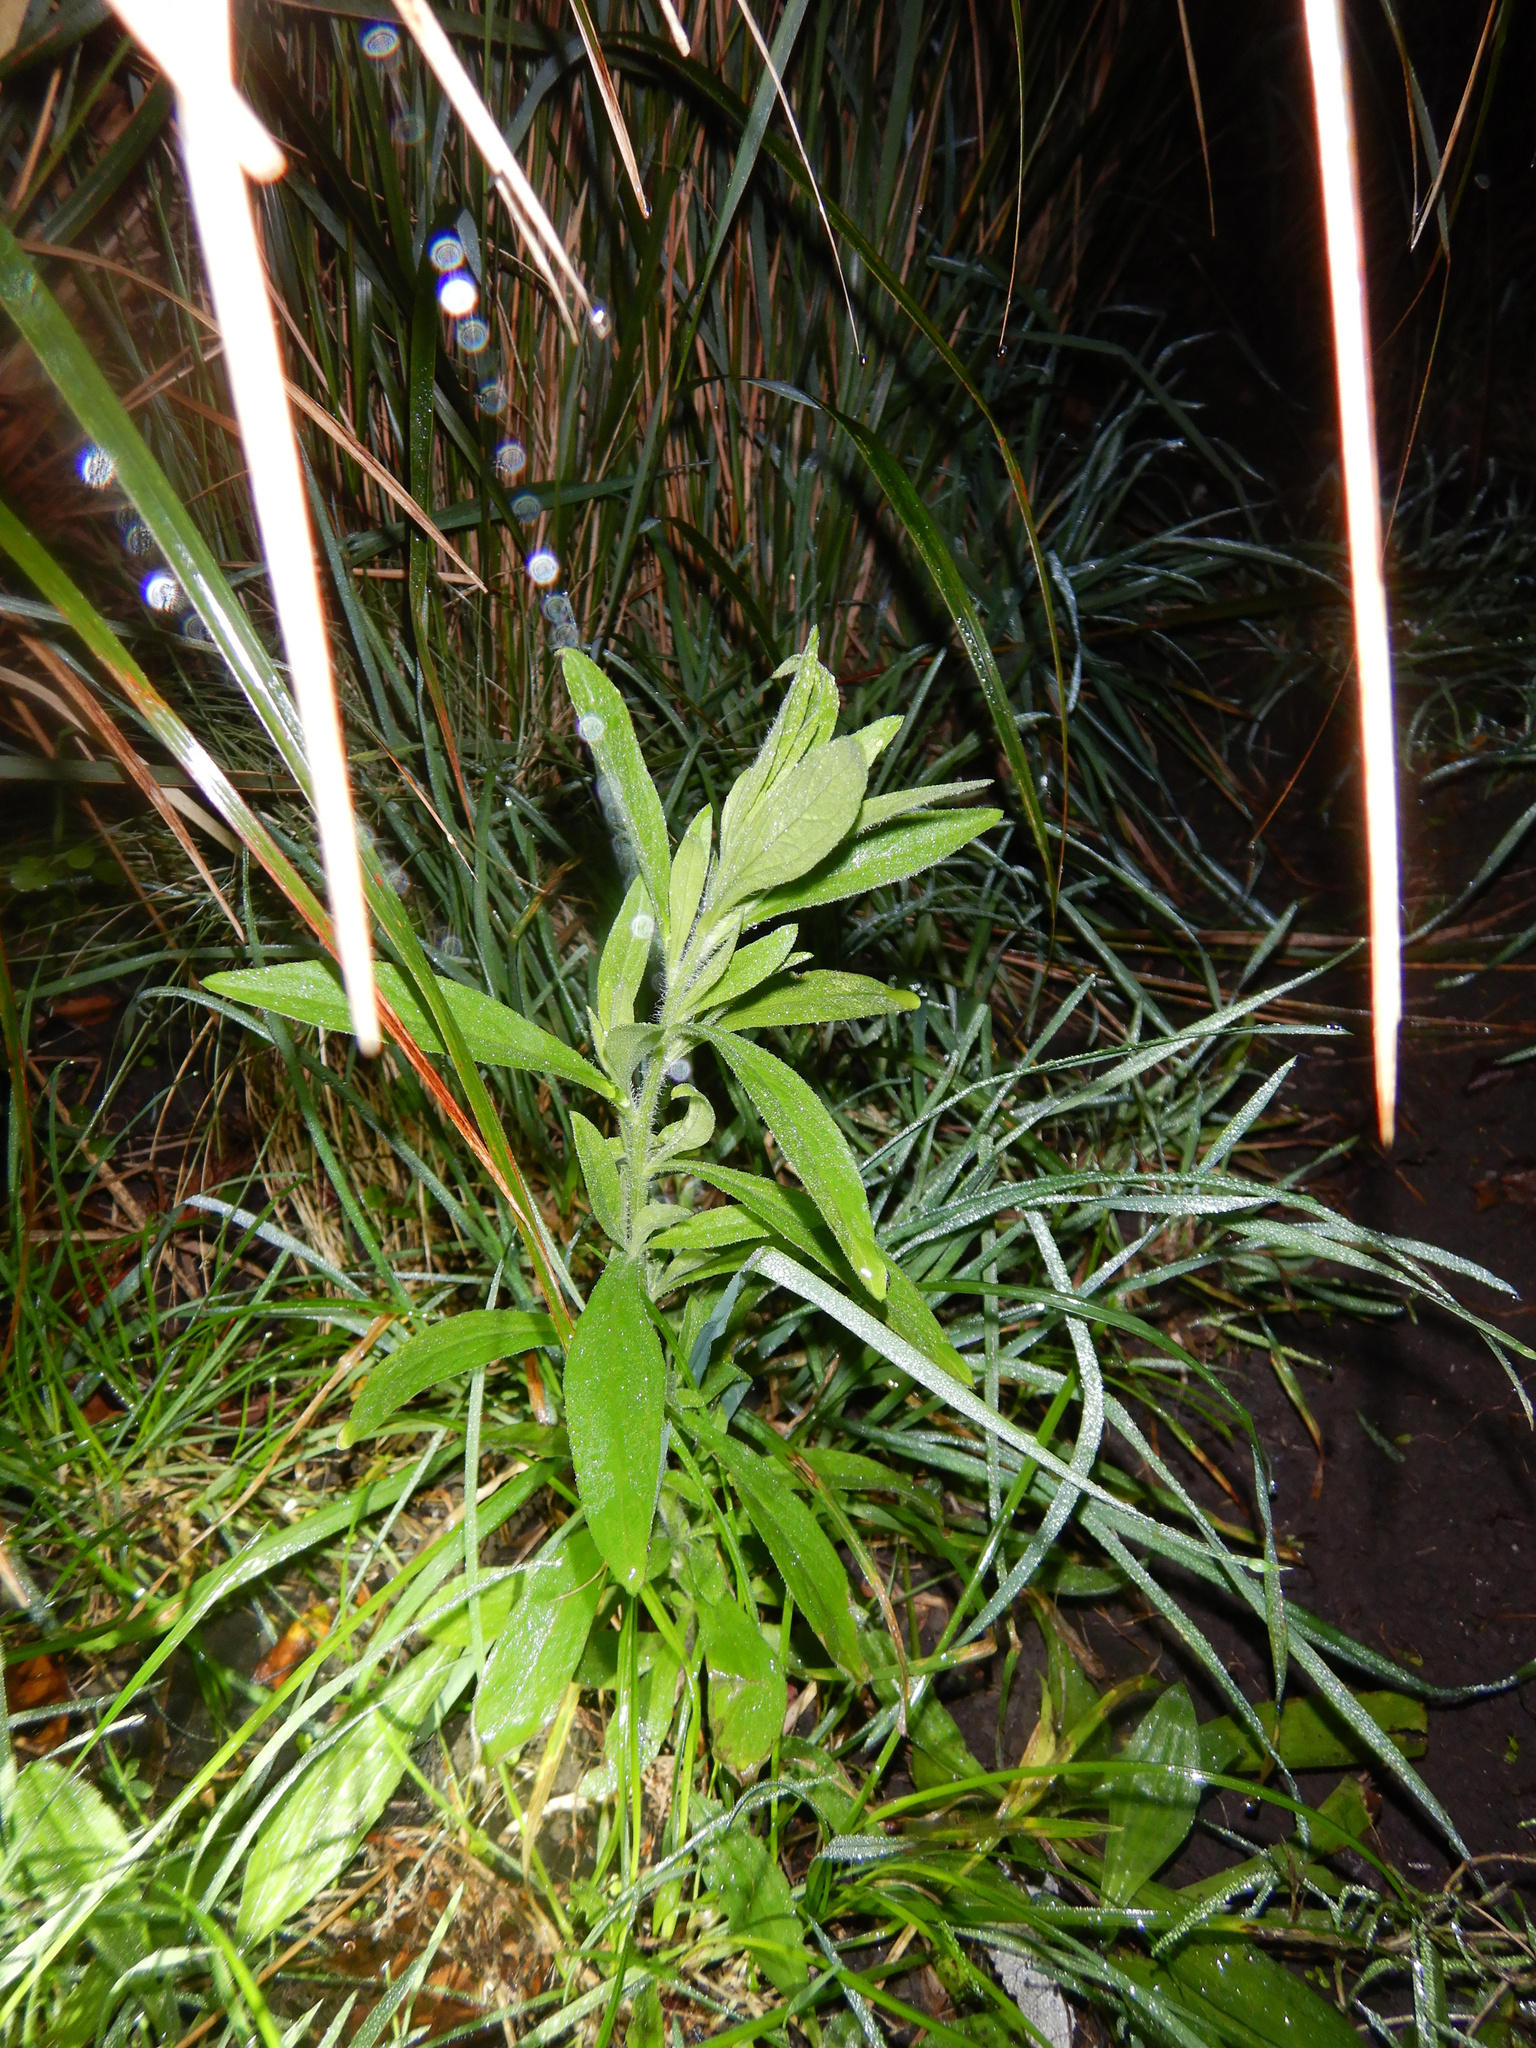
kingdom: Plantae
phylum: Tracheophyta
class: Magnoliopsida
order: Asterales
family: Asteraceae
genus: Erigeron
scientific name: Erigeron sumatrensis
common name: Daisy
